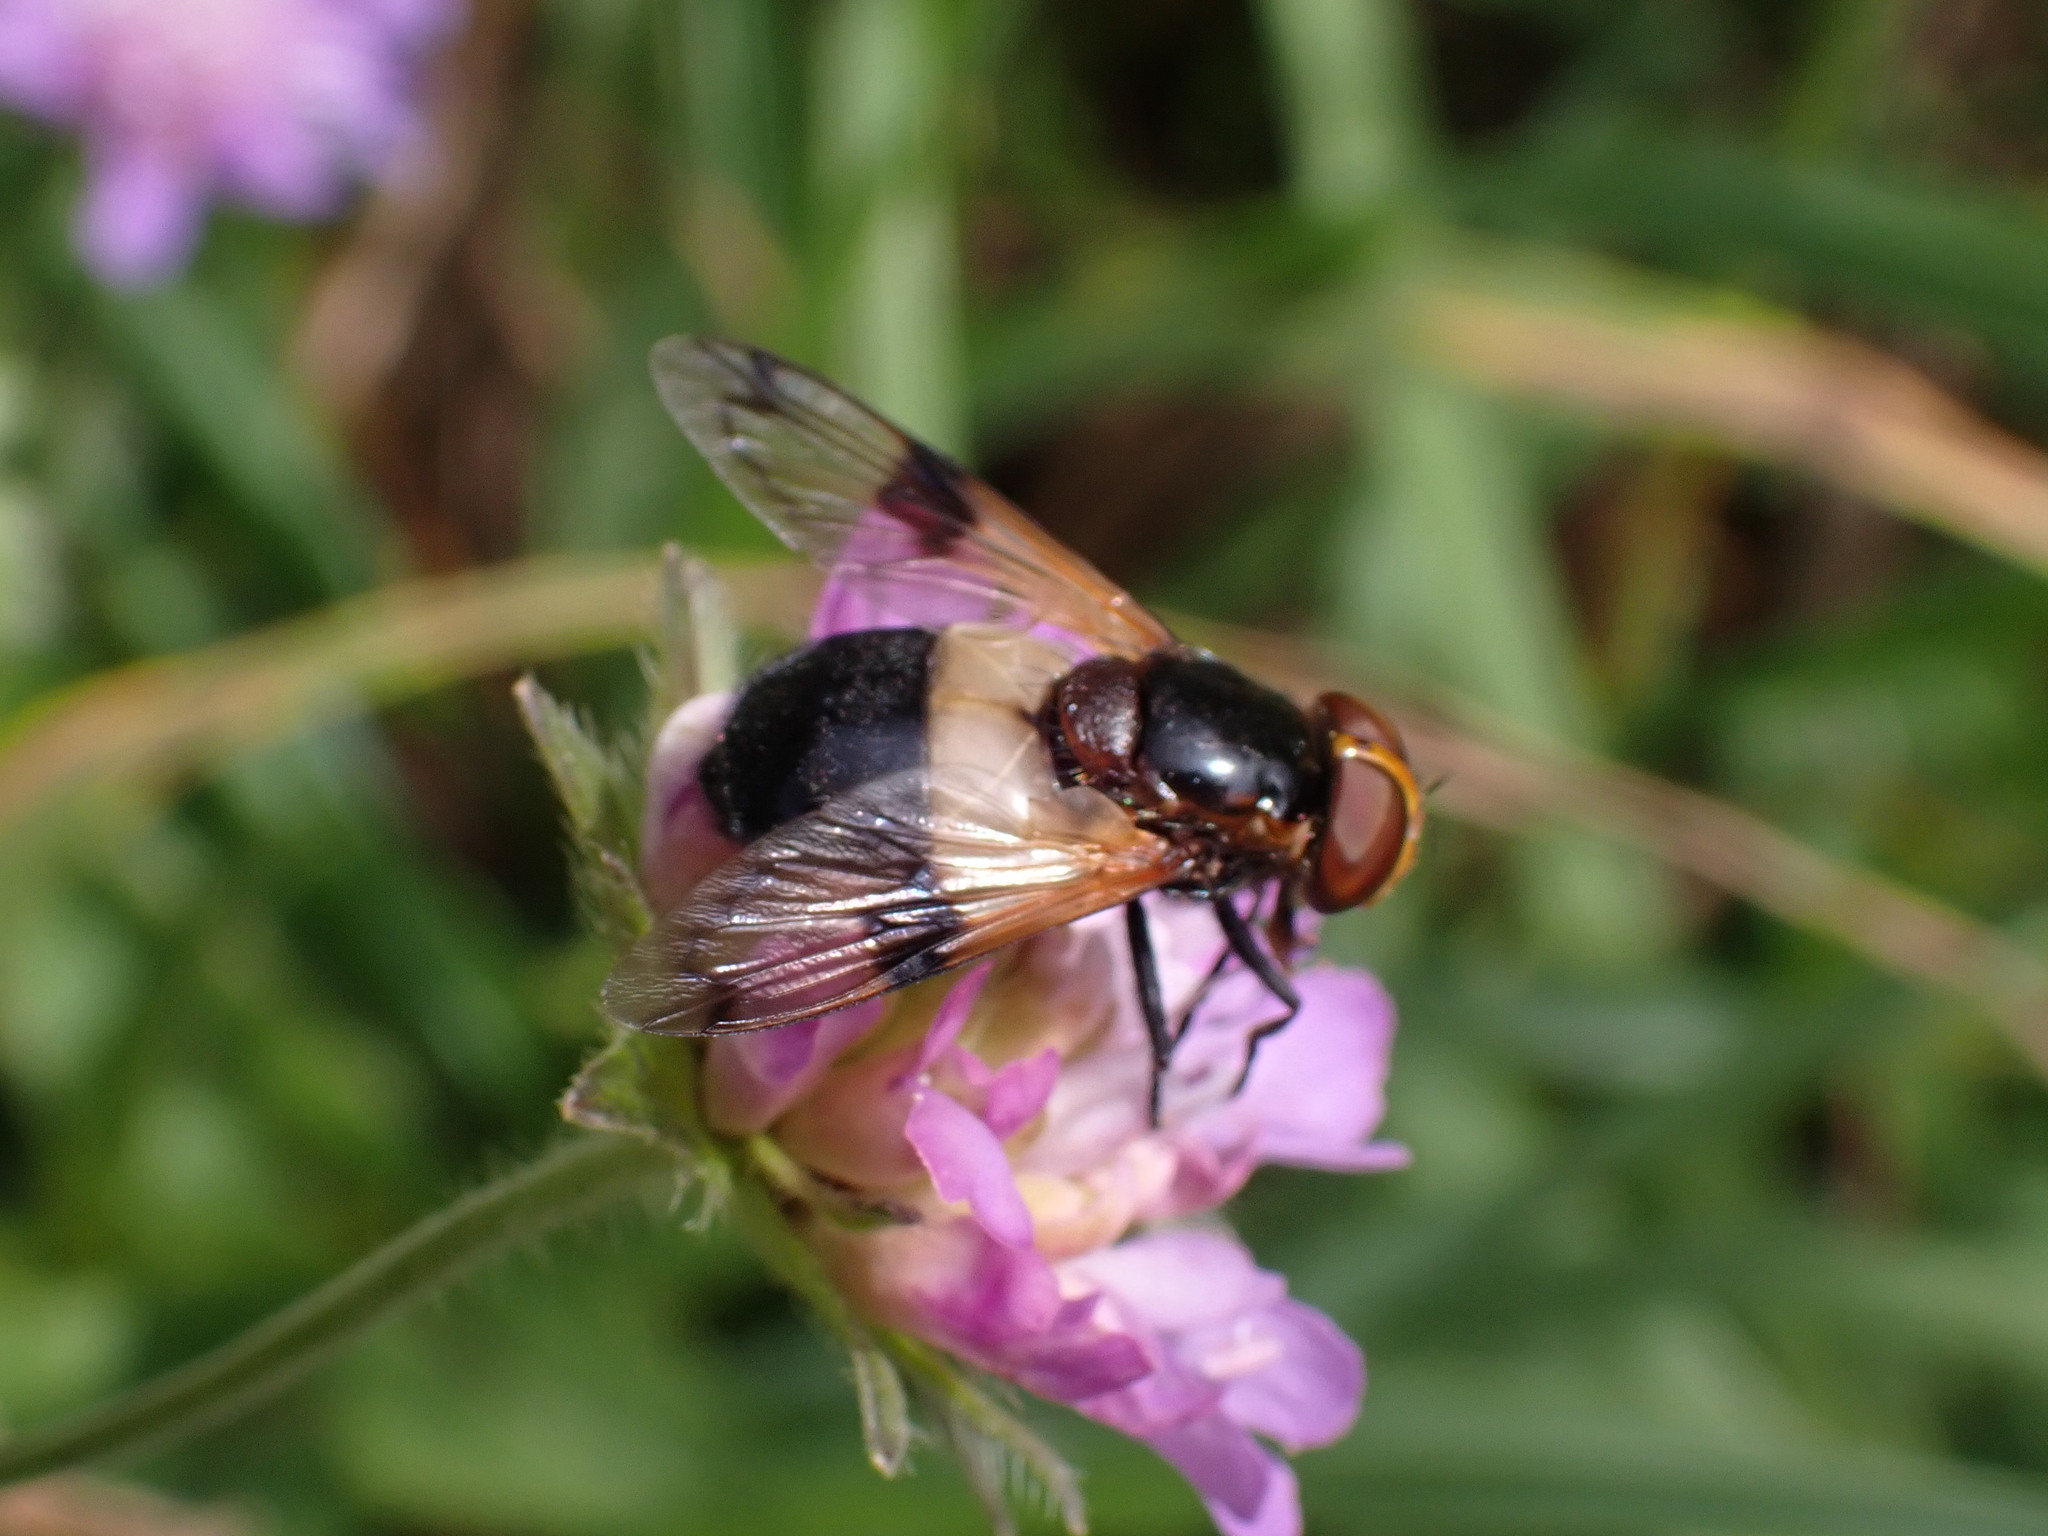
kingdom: Animalia
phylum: Arthropoda
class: Insecta
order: Diptera
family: Syrphidae
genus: Volucella
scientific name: Volucella pellucens
